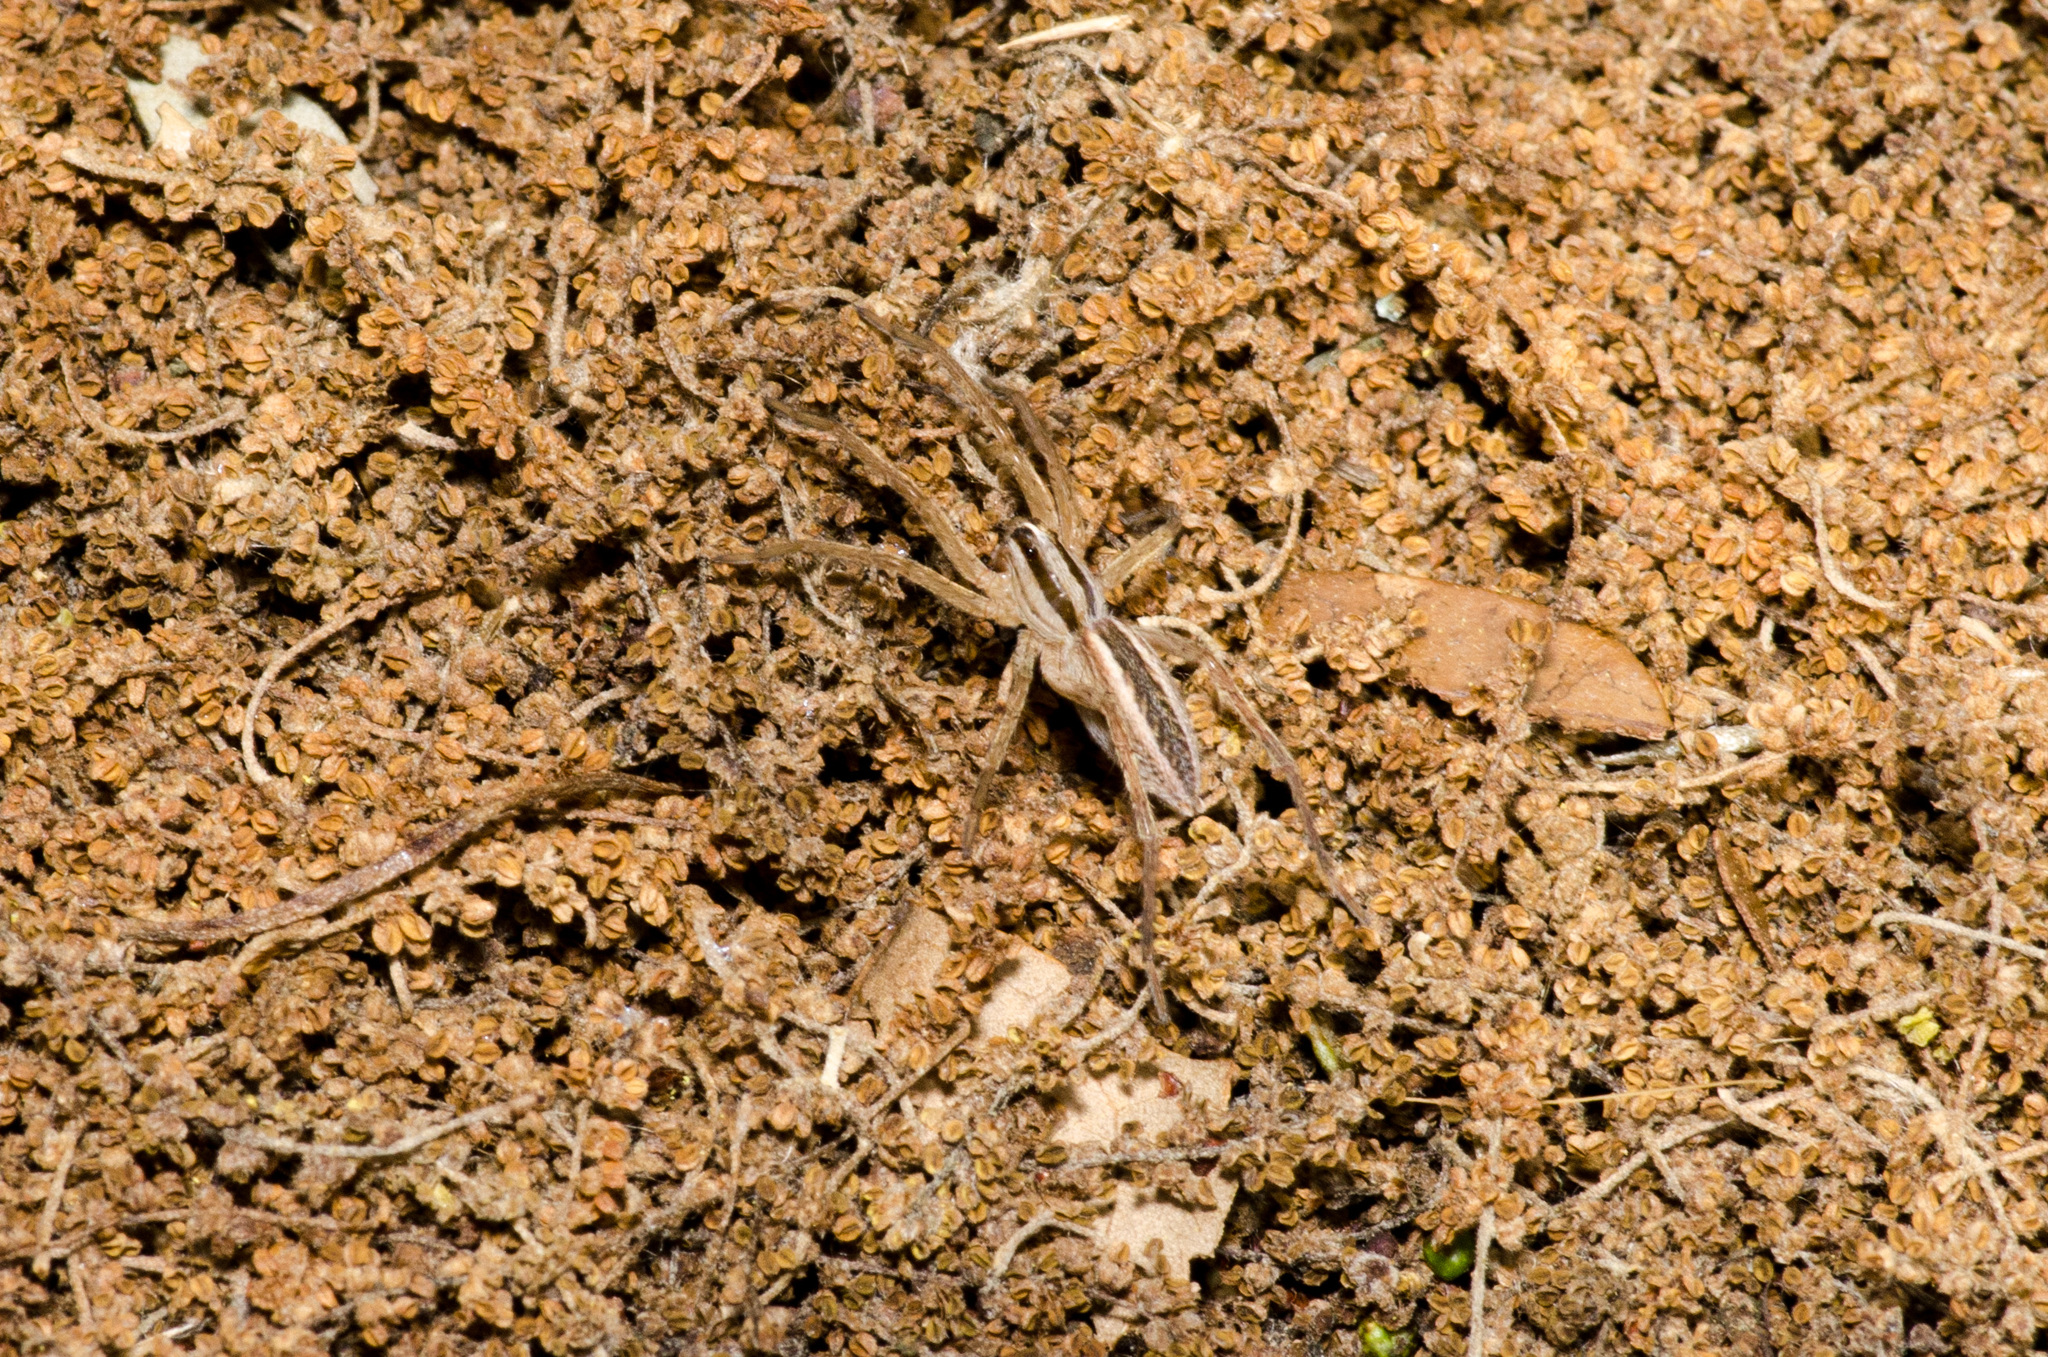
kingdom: Animalia
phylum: Arthropoda
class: Arachnida
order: Araneae
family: Lycosidae
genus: Rabidosa
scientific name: Rabidosa rabida
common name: Rabid wolf spider
